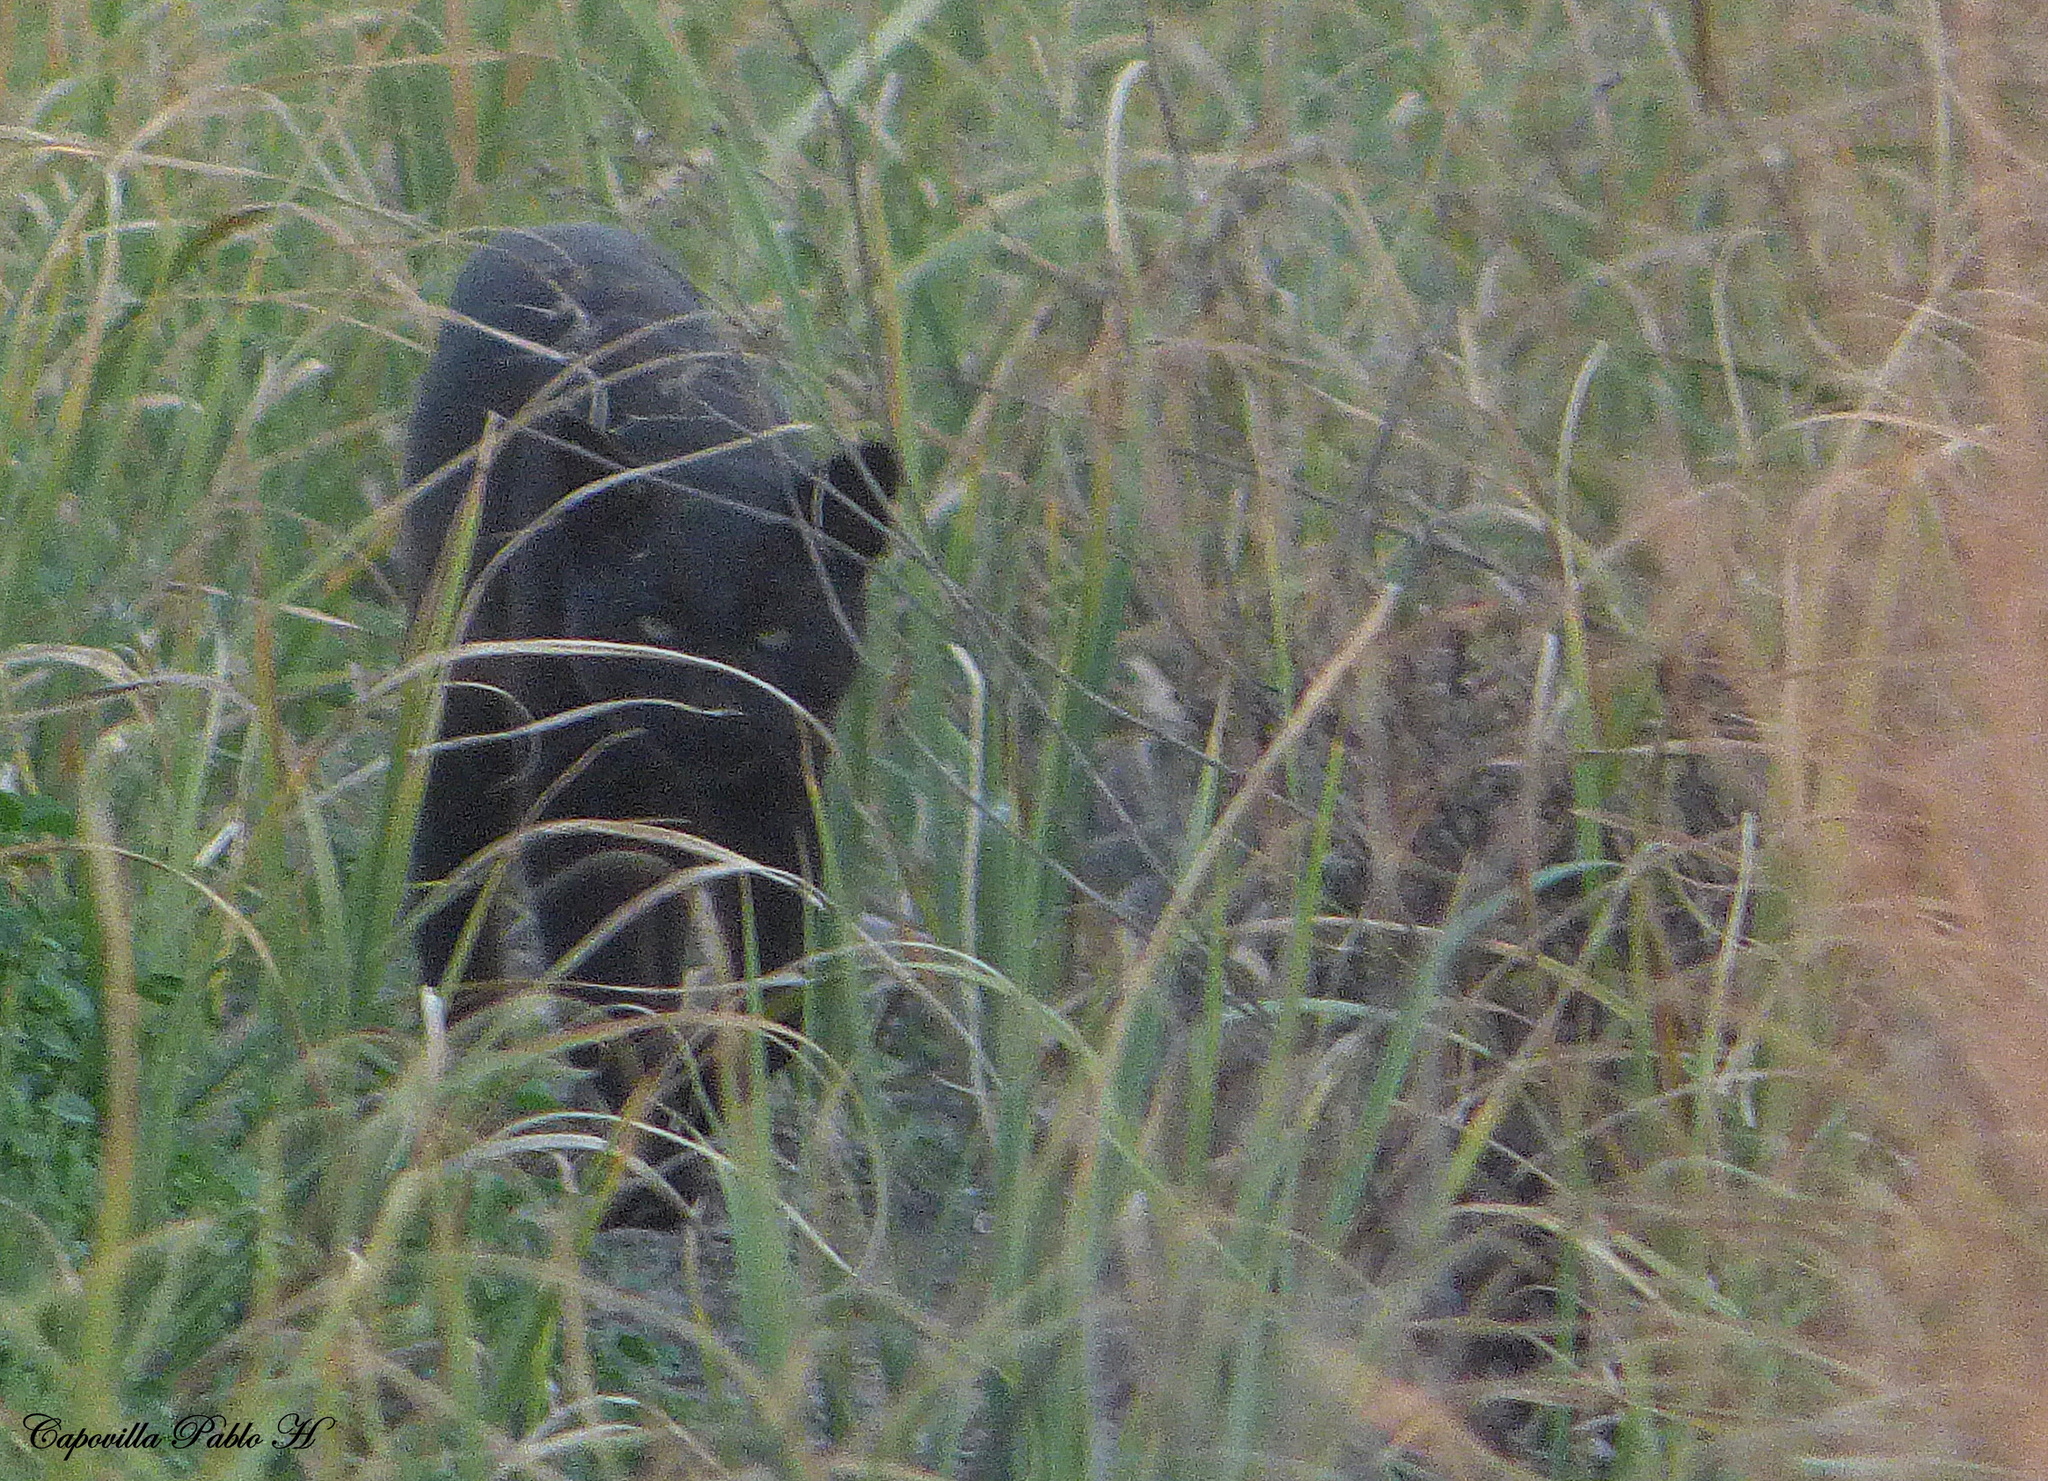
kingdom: Animalia
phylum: Chordata
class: Mammalia
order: Carnivora
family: Felidae
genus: Leopardus
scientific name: Leopardus geoffroyi
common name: Geoffroy's cat
